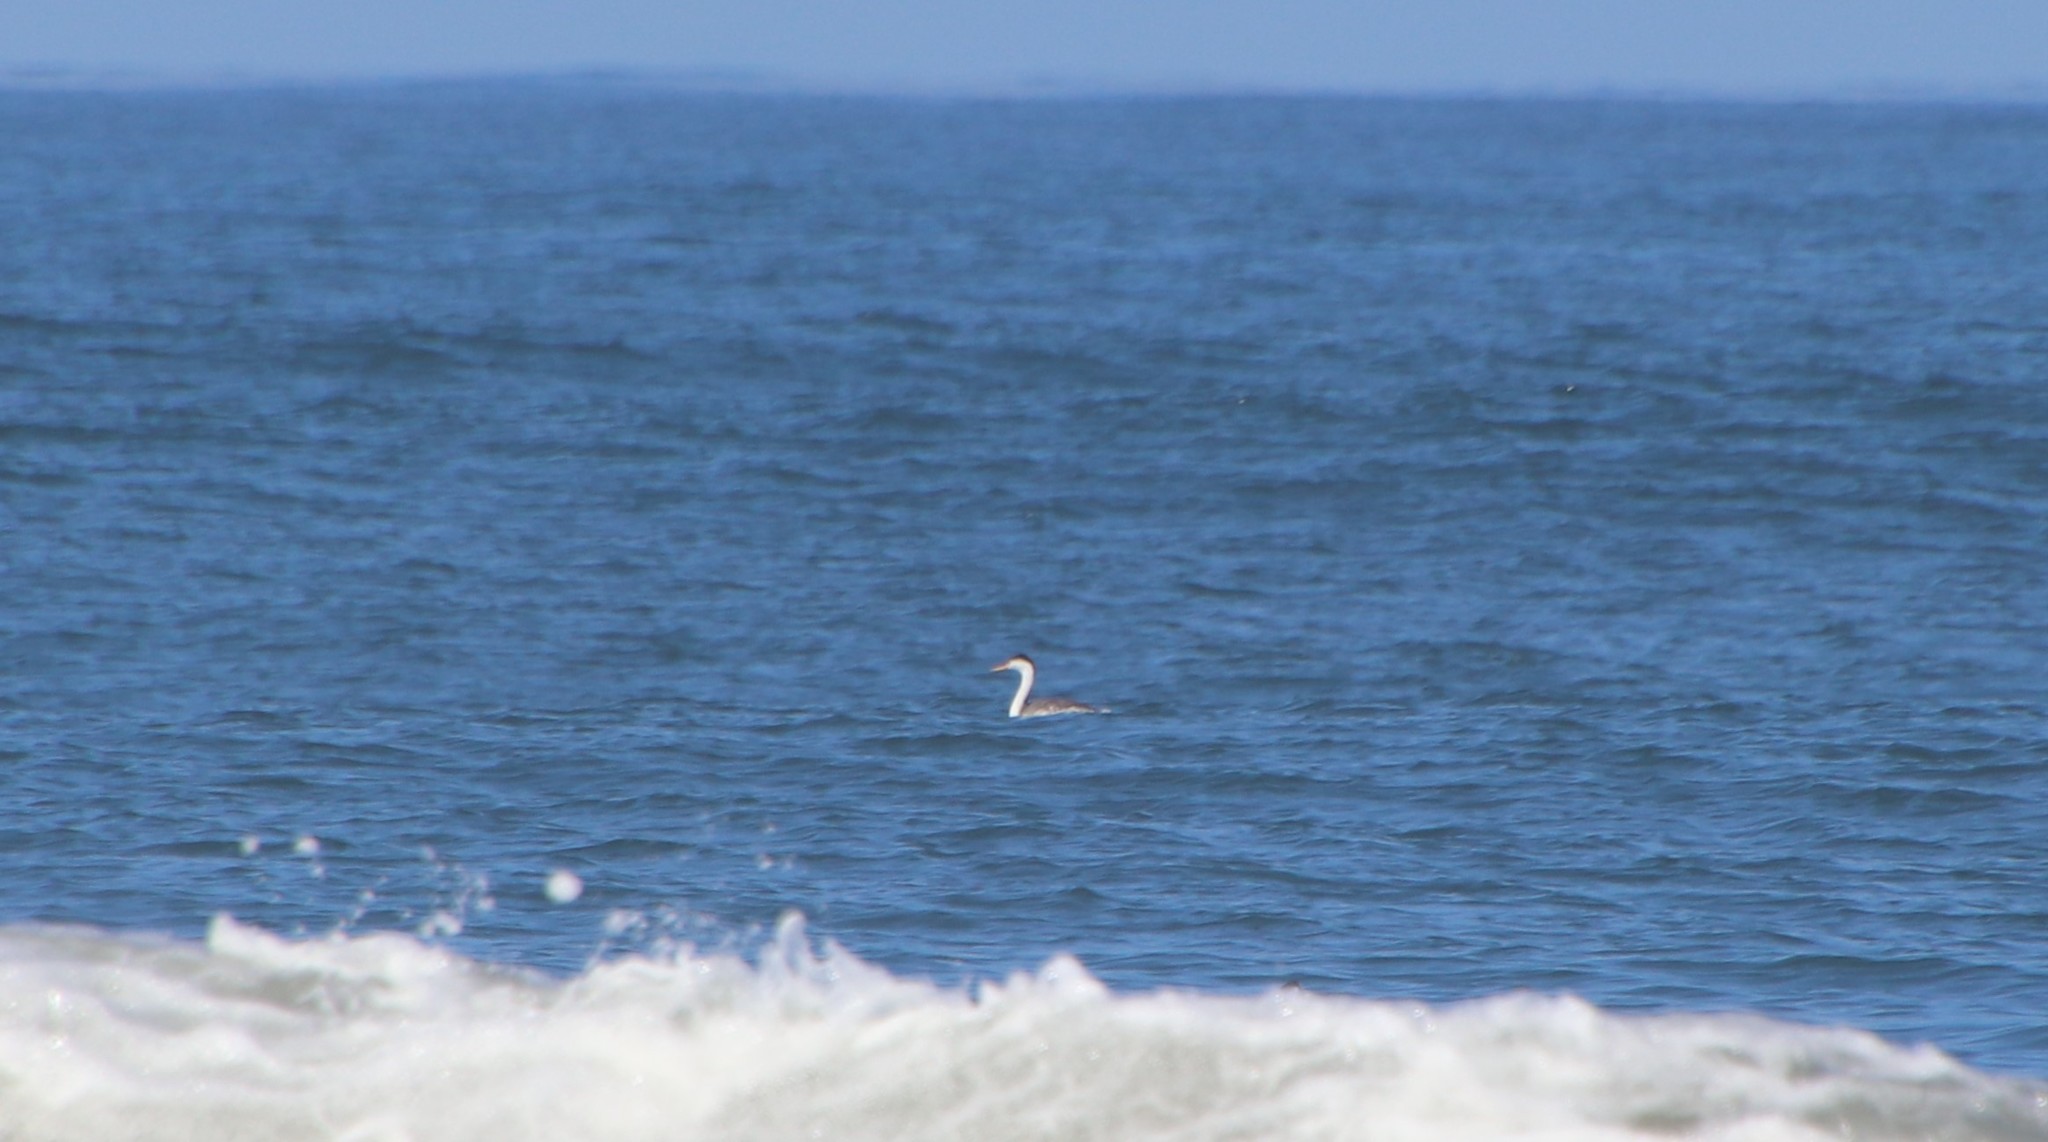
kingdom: Animalia
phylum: Chordata
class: Aves
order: Podicipediformes
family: Podicipedidae
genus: Aechmophorus
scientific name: Aechmophorus clarkii
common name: Clark's grebe
